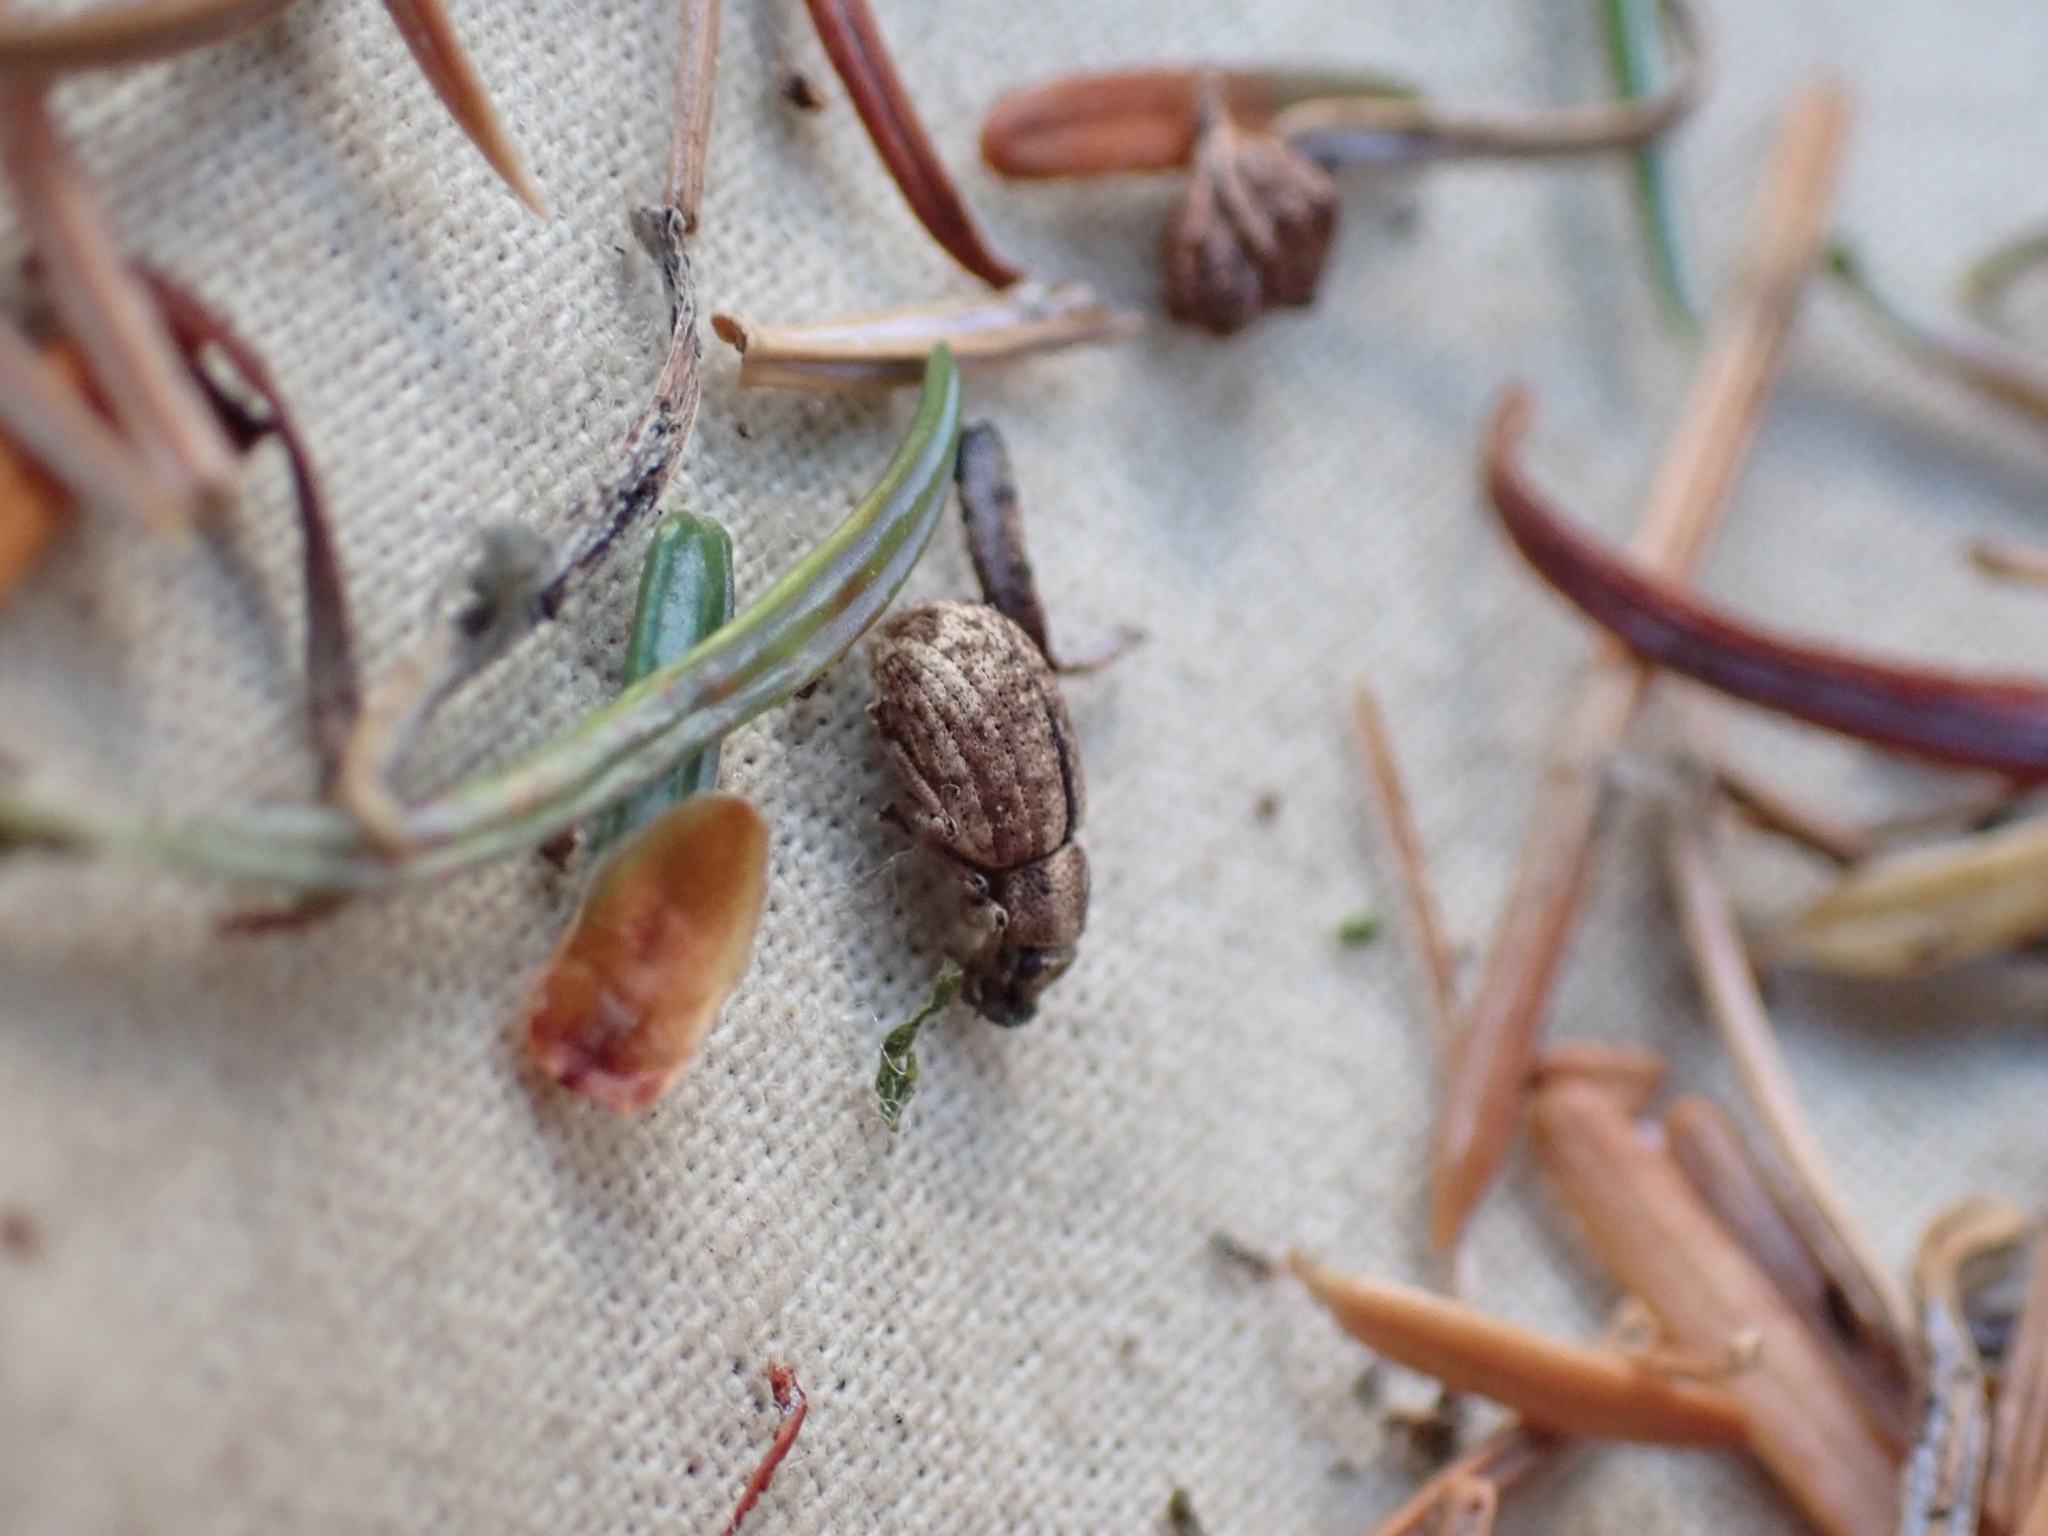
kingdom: Animalia
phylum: Arthropoda
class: Insecta
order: Coleoptera
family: Curculionidae
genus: Strophosoma
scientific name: Strophosoma melanogrammum
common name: Weevil
